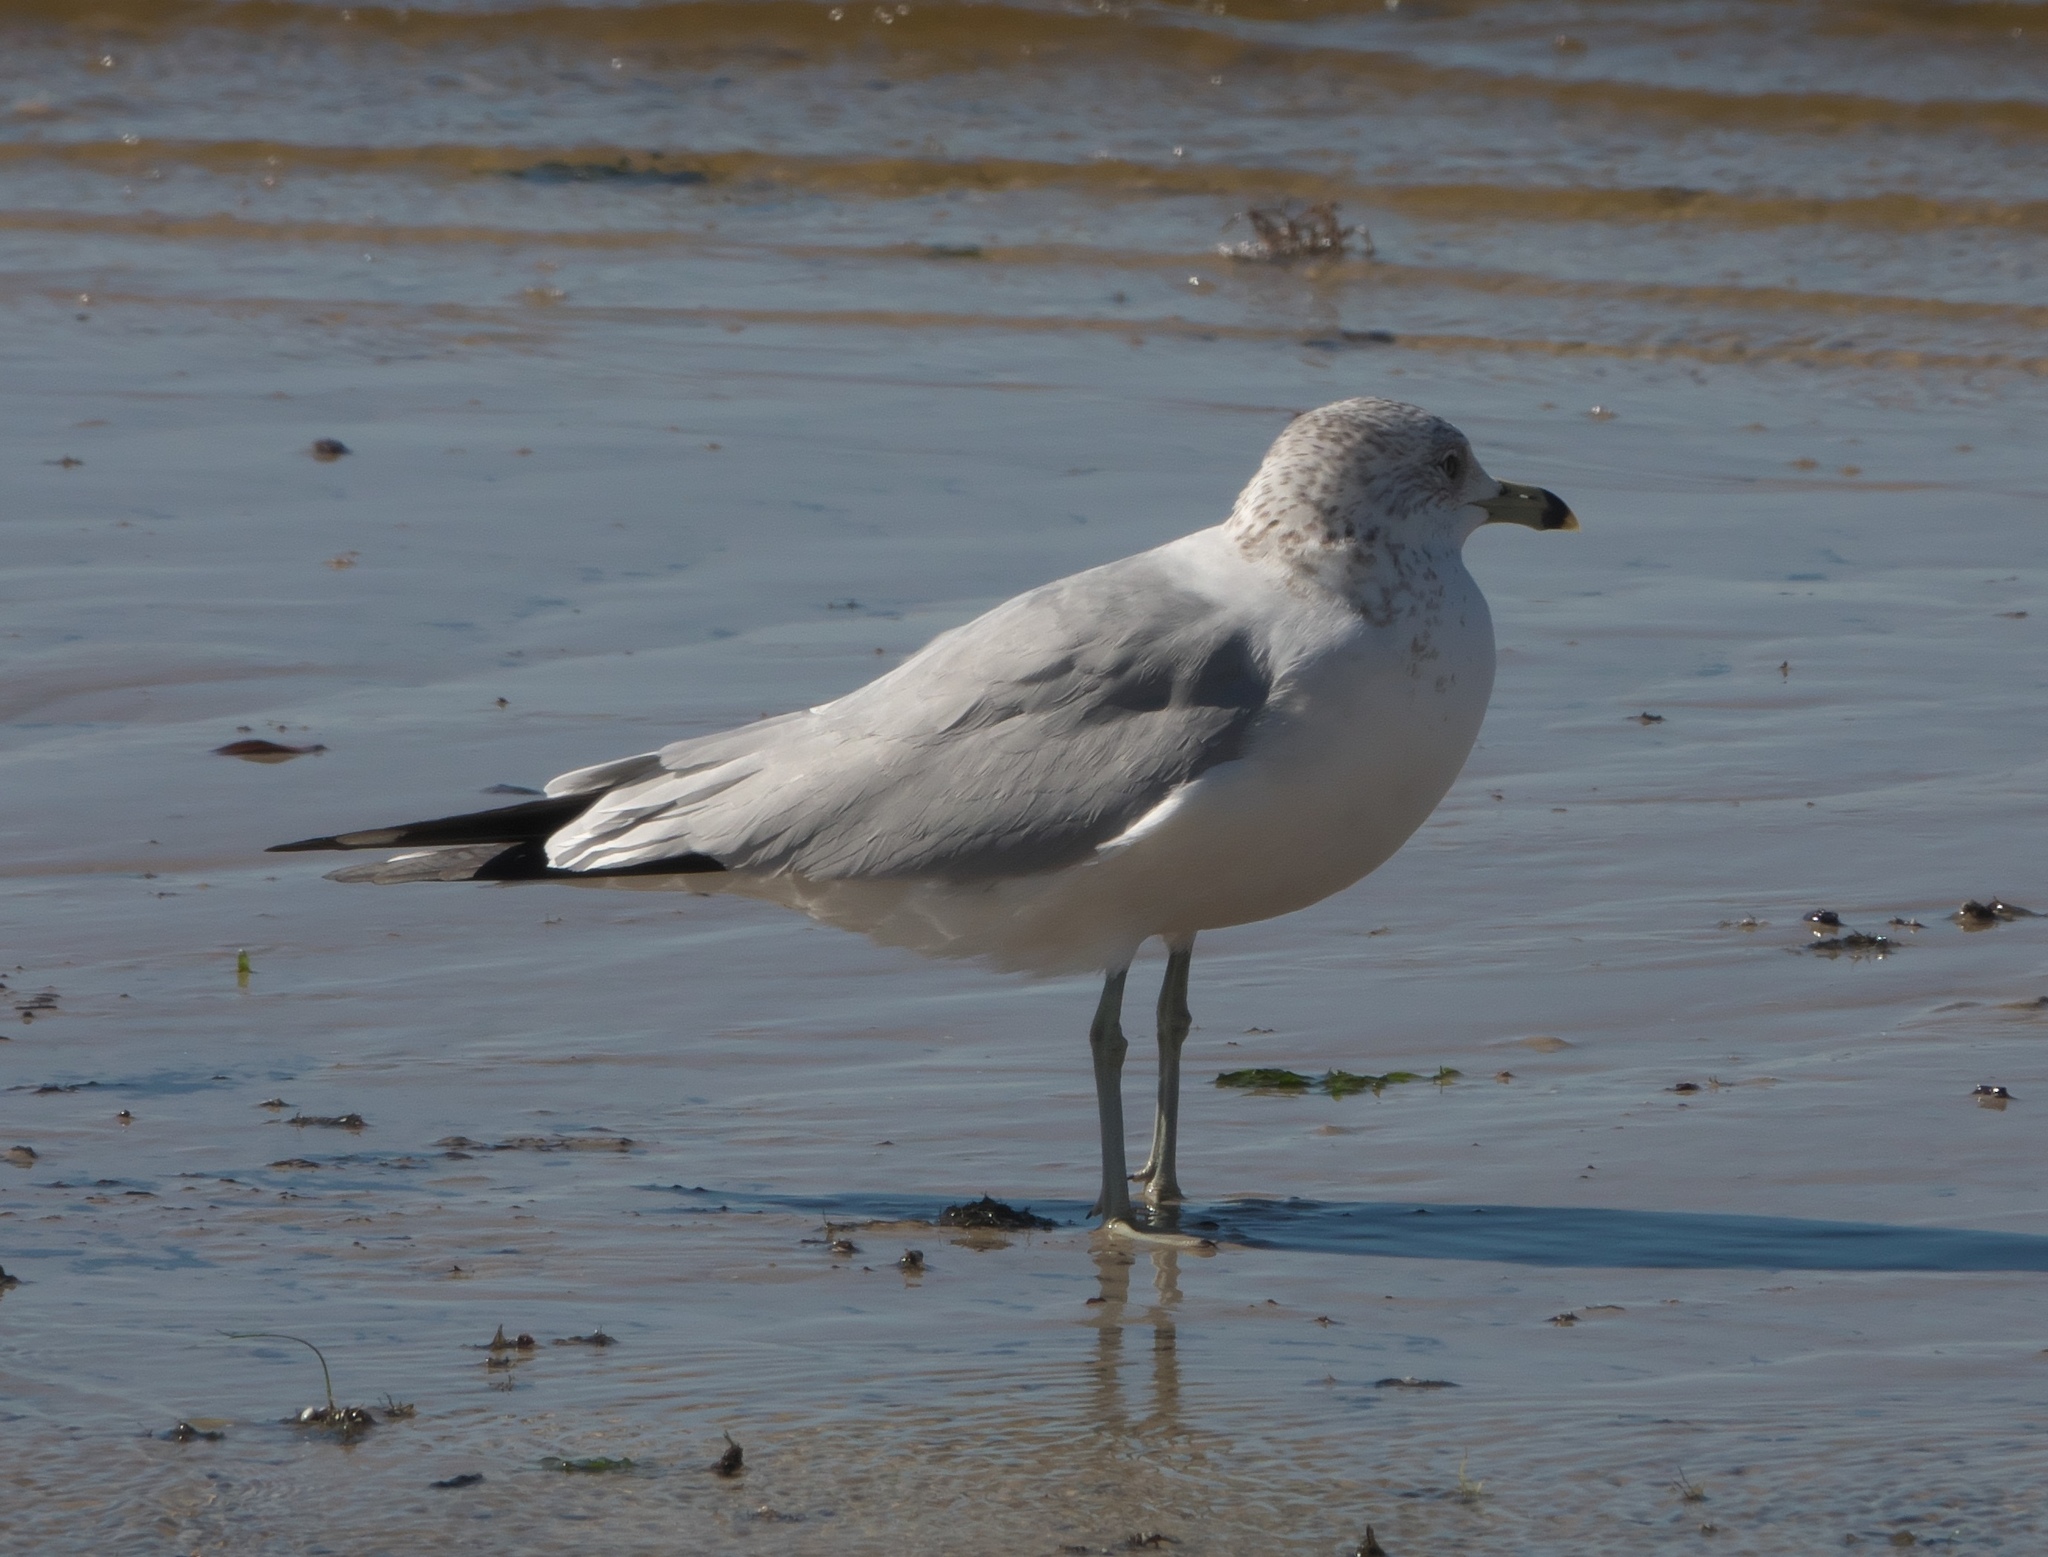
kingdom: Animalia
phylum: Chordata
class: Aves
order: Charadriiformes
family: Laridae
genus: Larus
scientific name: Larus delawarensis
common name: Ring-billed gull
